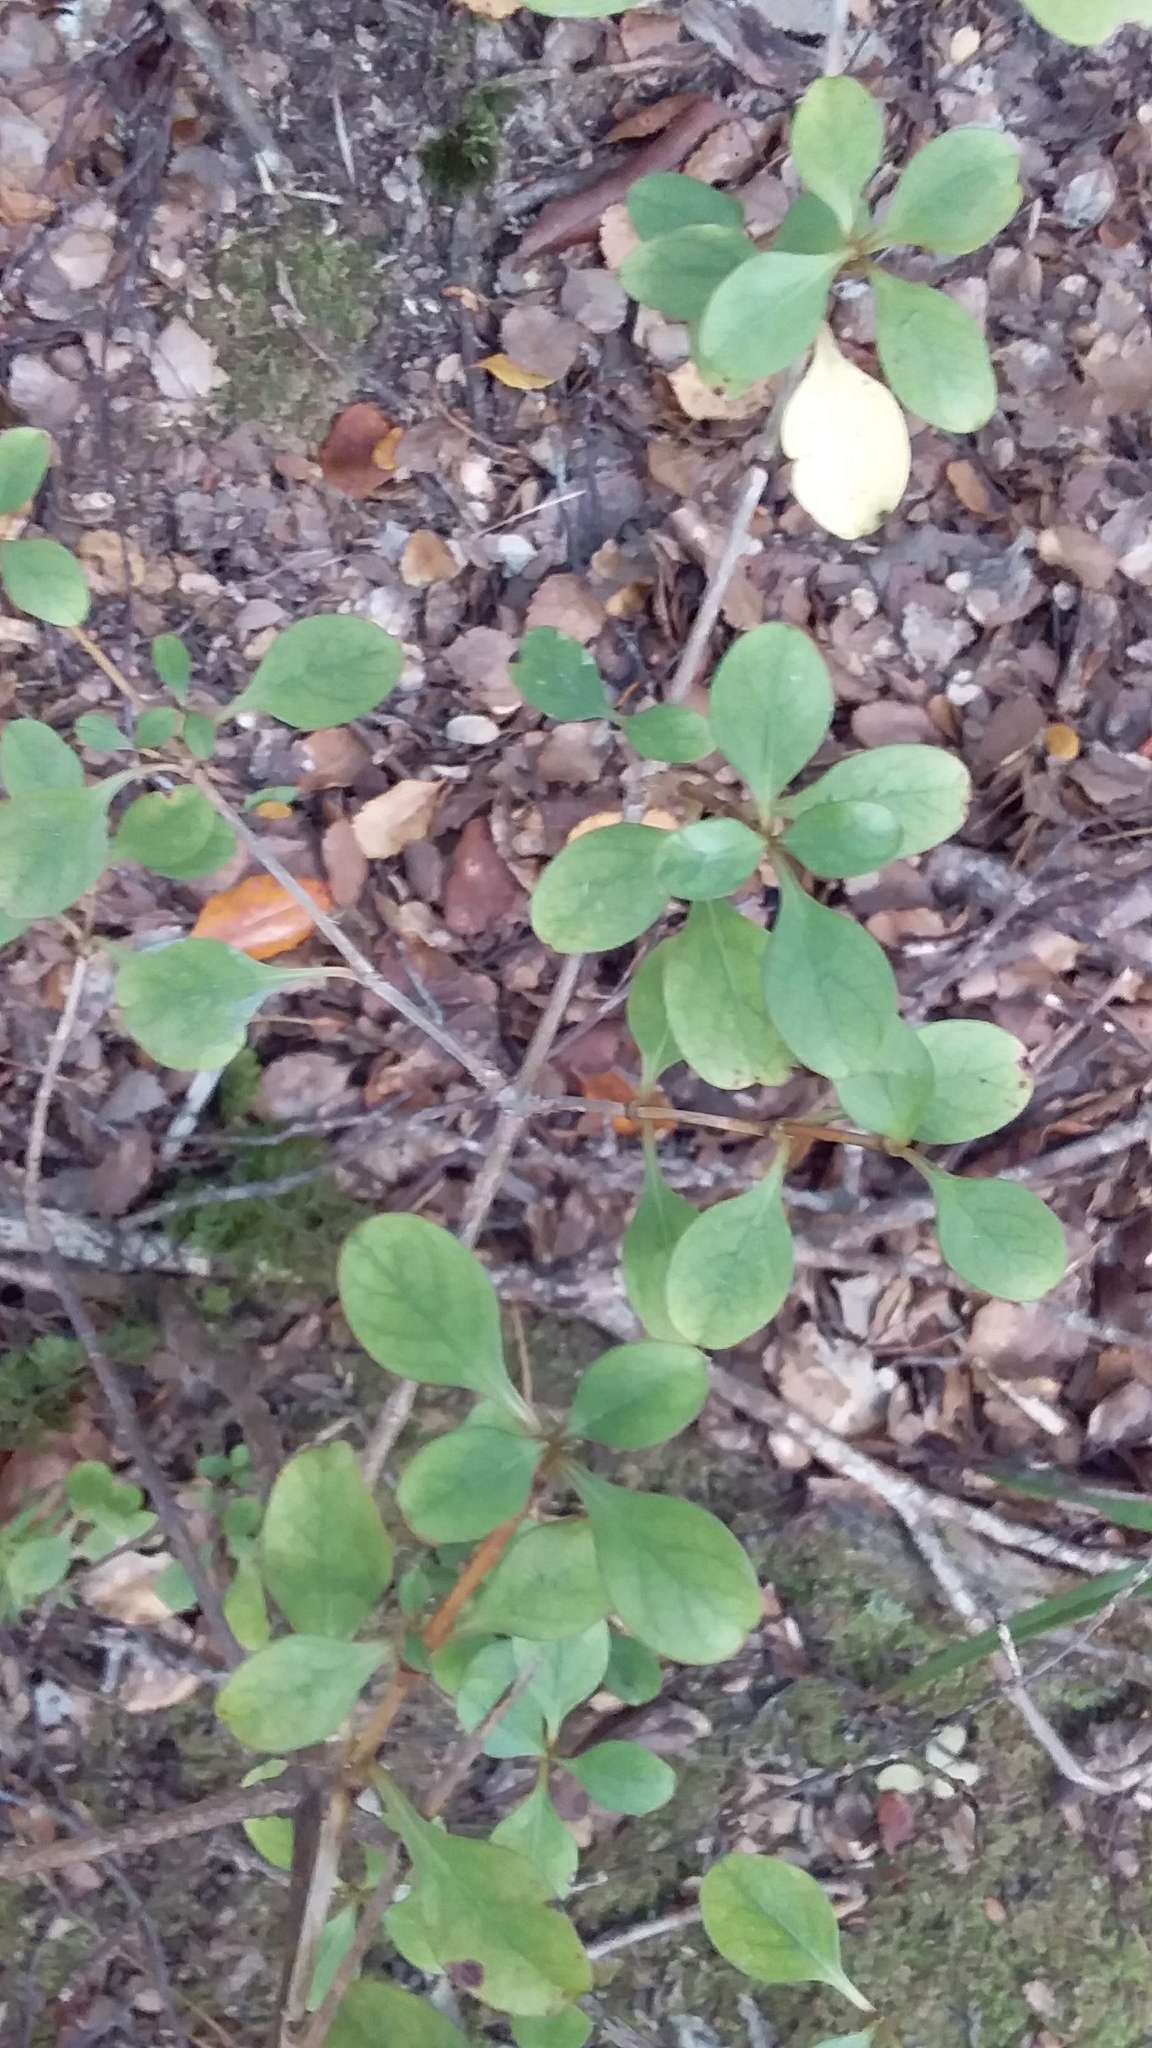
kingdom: Plantae
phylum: Tracheophyta
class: Magnoliopsida
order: Gentianales
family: Rubiaceae
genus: Coprosma
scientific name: Coprosma foetidissima
